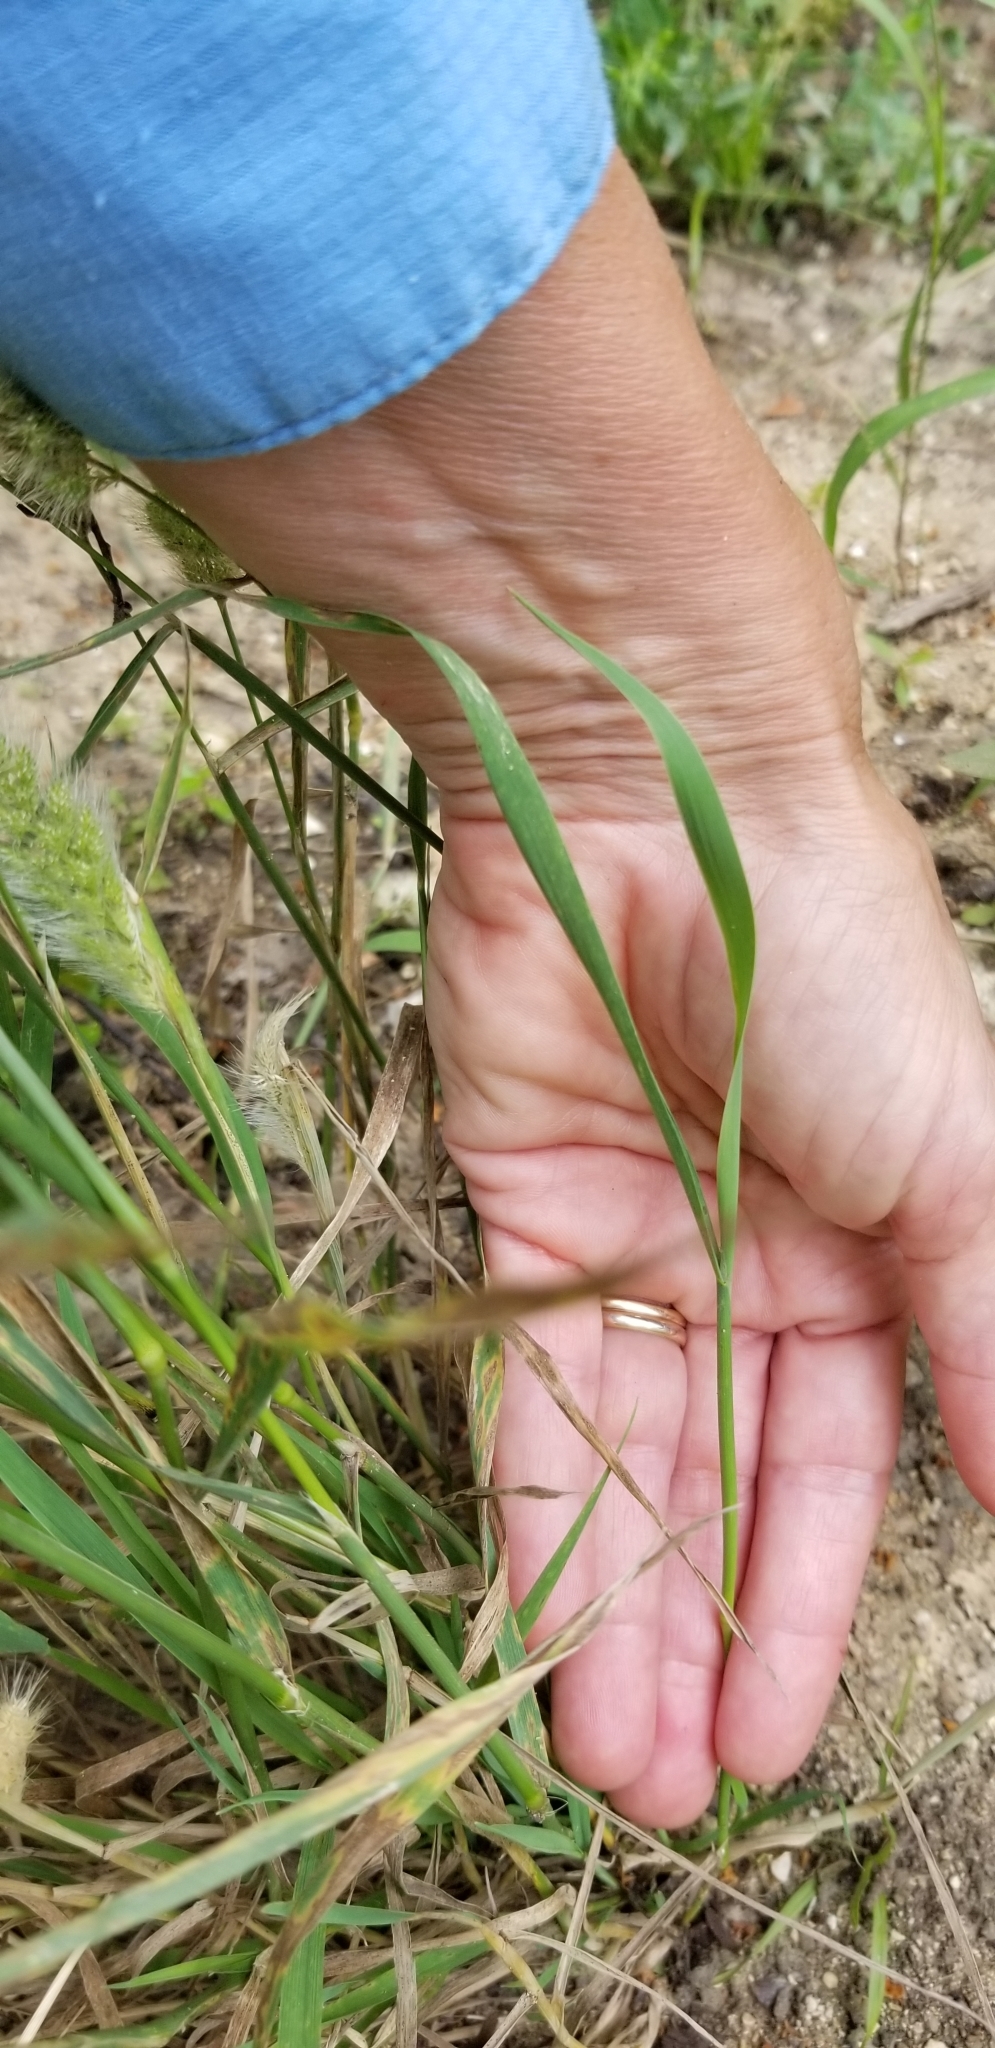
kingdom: Plantae
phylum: Tracheophyta
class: Liliopsida
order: Poales
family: Poaceae
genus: Polypogon
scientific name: Polypogon monspeliensis
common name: Annual rabbitsfoot grass
